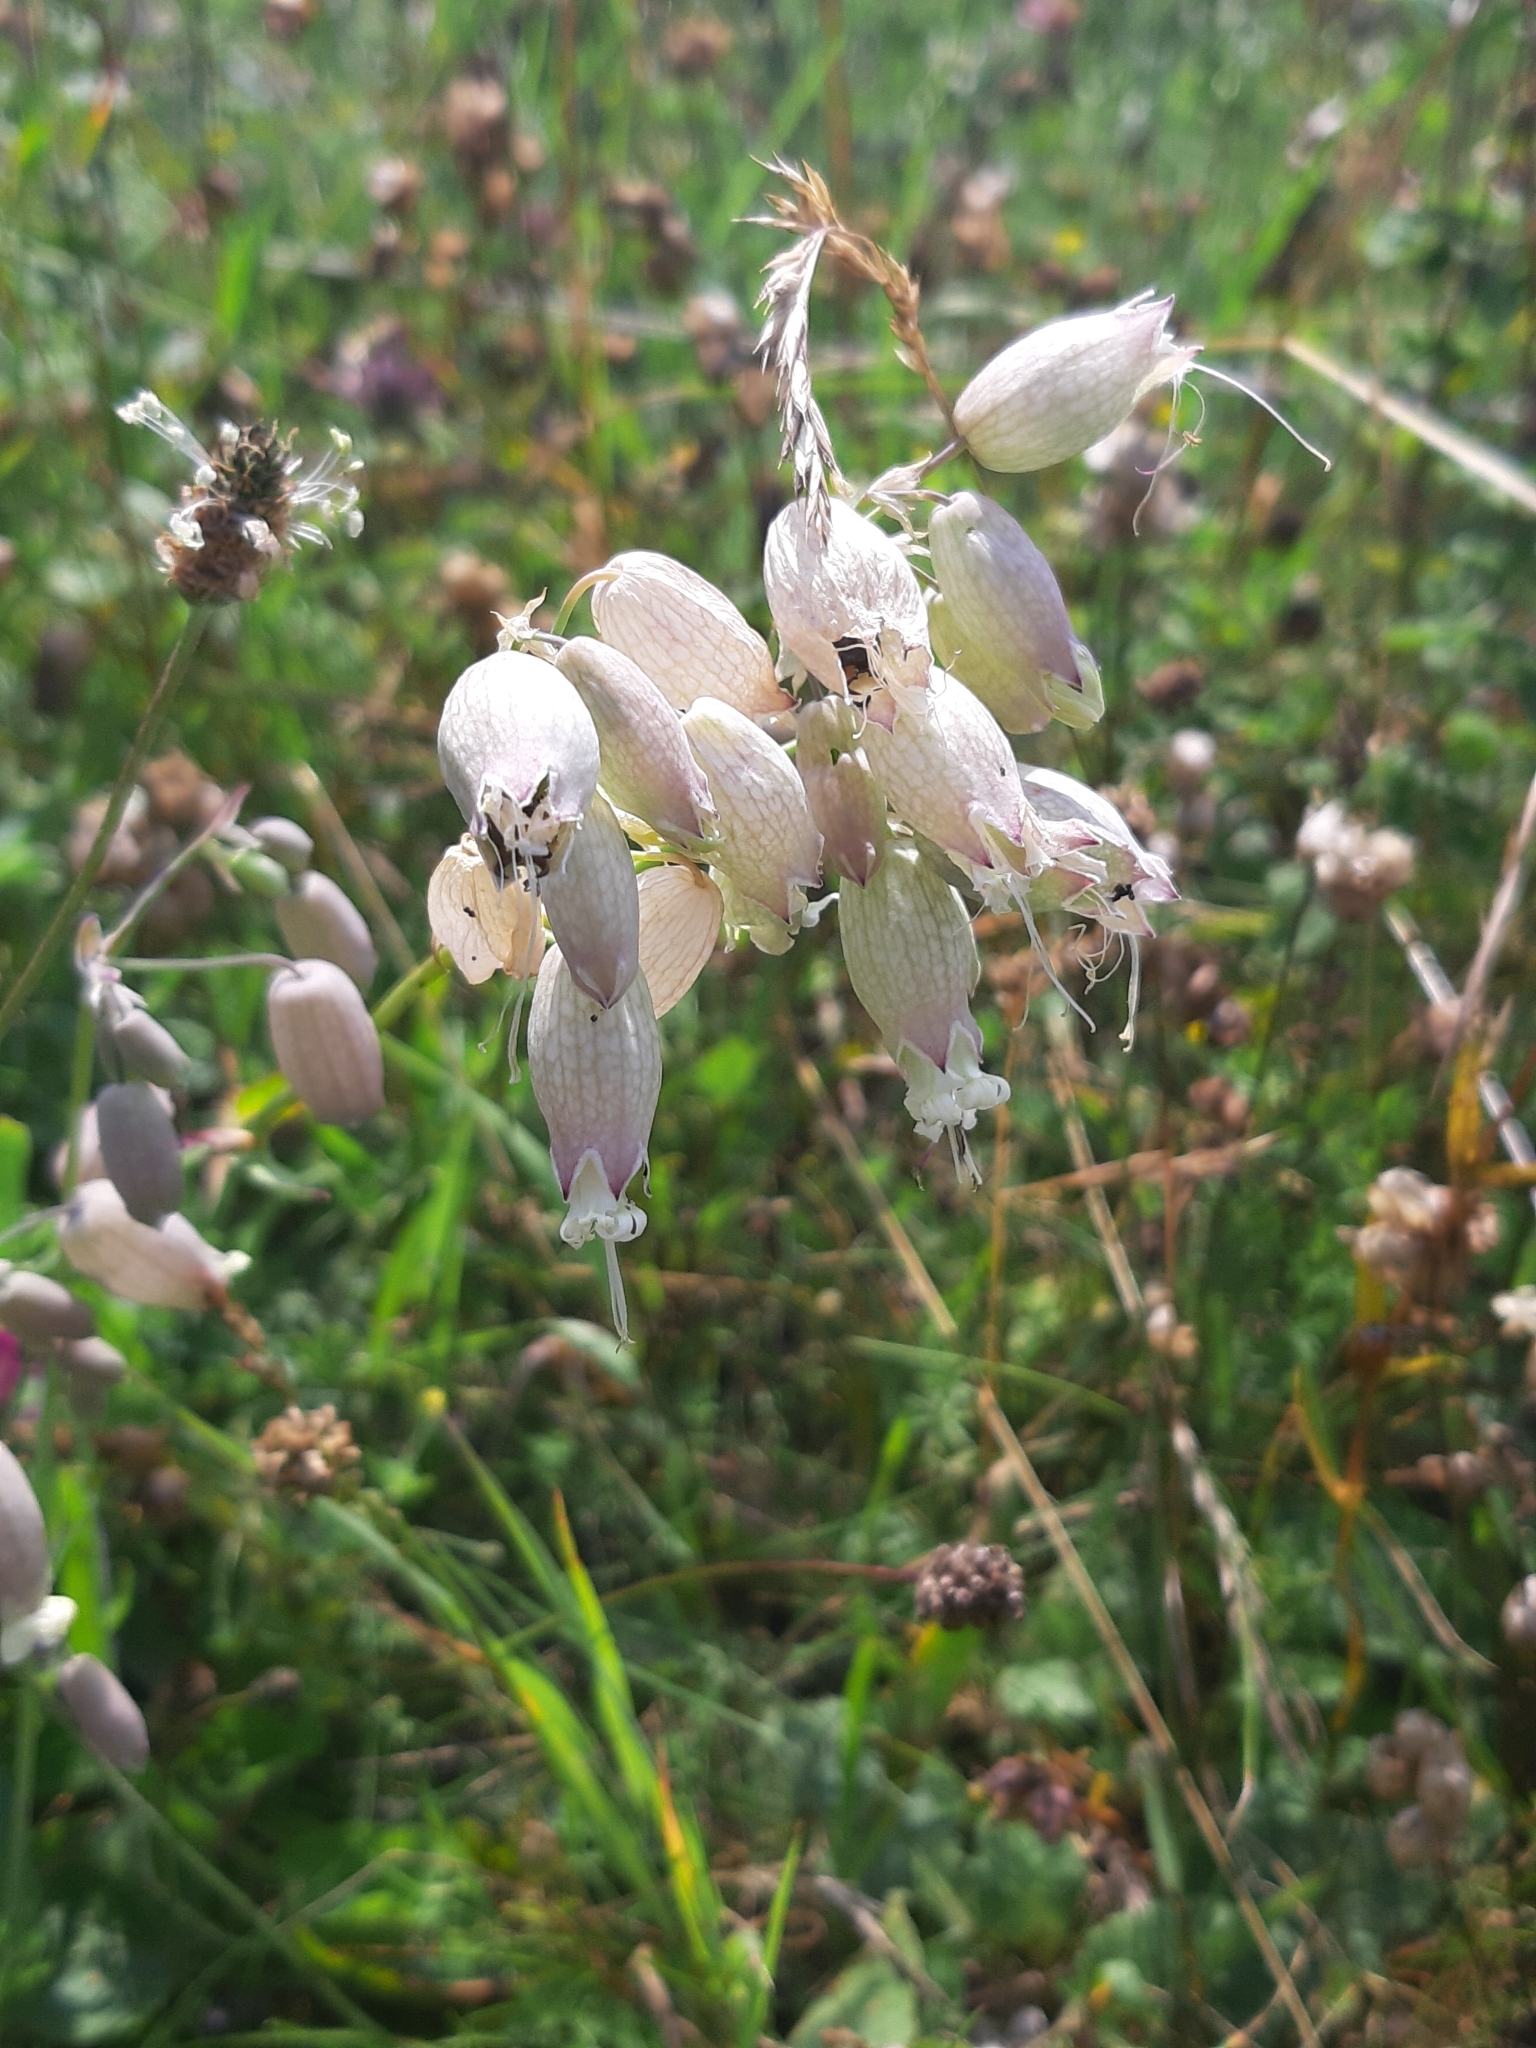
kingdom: Plantae
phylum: Tracheophyta
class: Magnoliopsida
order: Caryophyllales
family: Caryophyllaceae
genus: Silene
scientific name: Silene vulgaris
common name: Bladder campion
